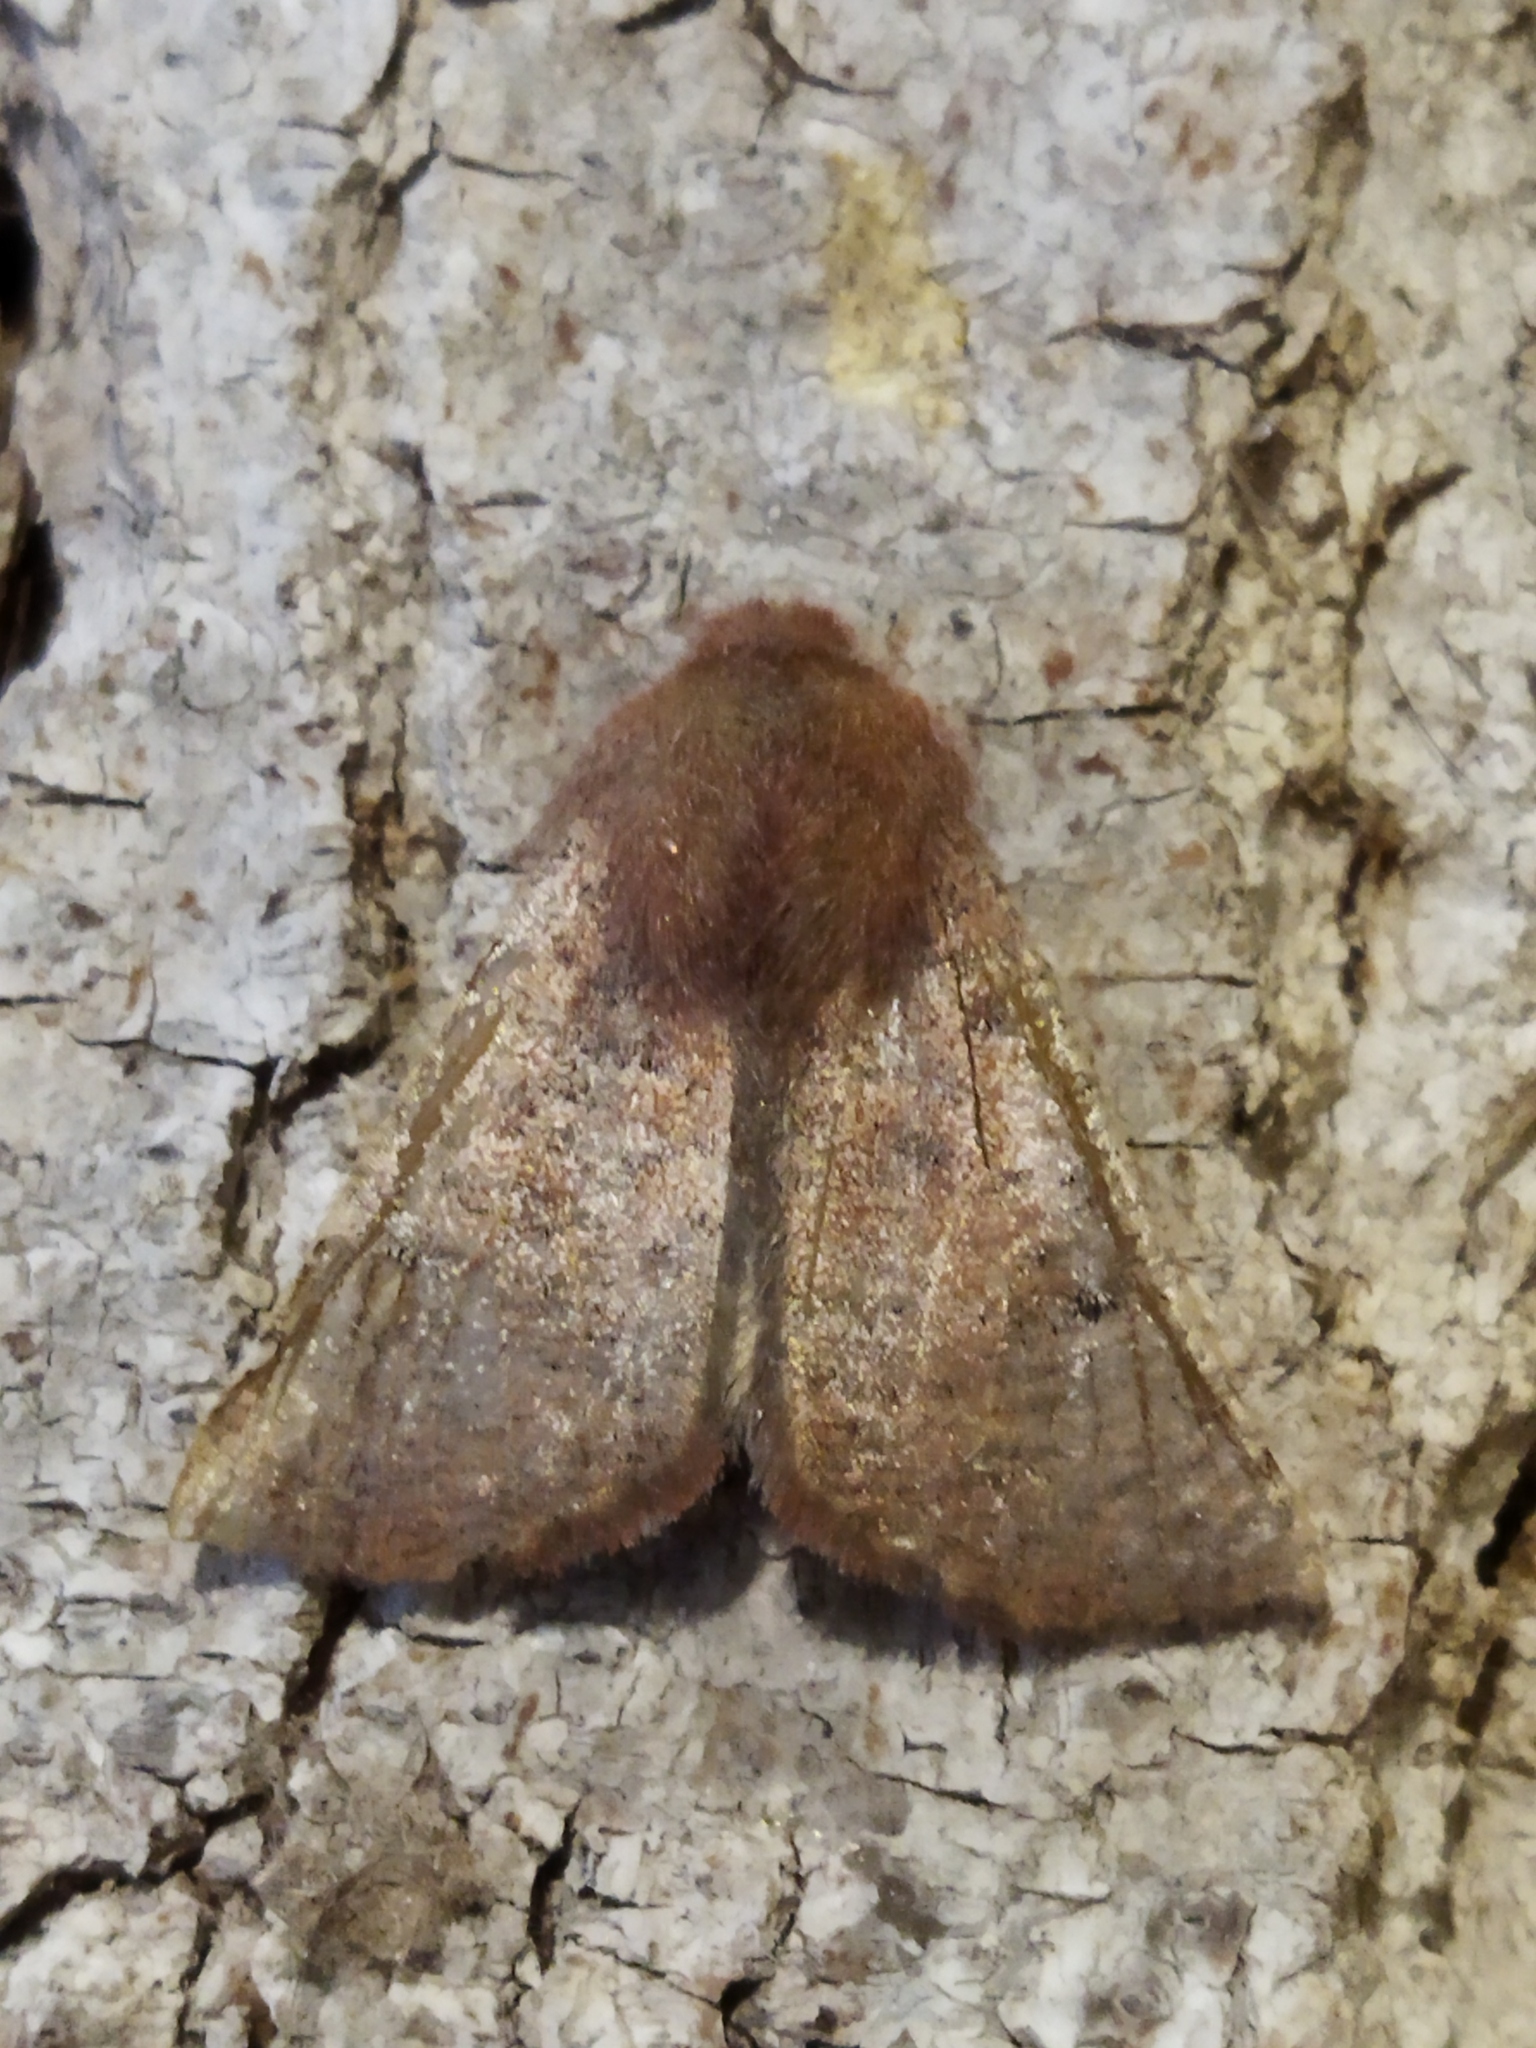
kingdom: Animalia
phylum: Arthropoda
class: Insecta
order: Lepidoptera
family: Geometridae
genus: Dasycorsa
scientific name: Dasycorsa modesta
